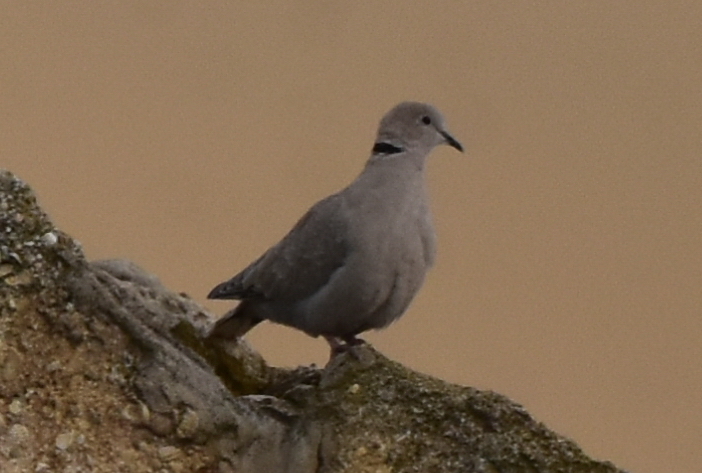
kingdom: Animalia
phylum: Chordata
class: Aves
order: Columbiformes
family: Columbidae
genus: Streptopelia
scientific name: Streptopelia decaocto
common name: Eurasian collared dove
